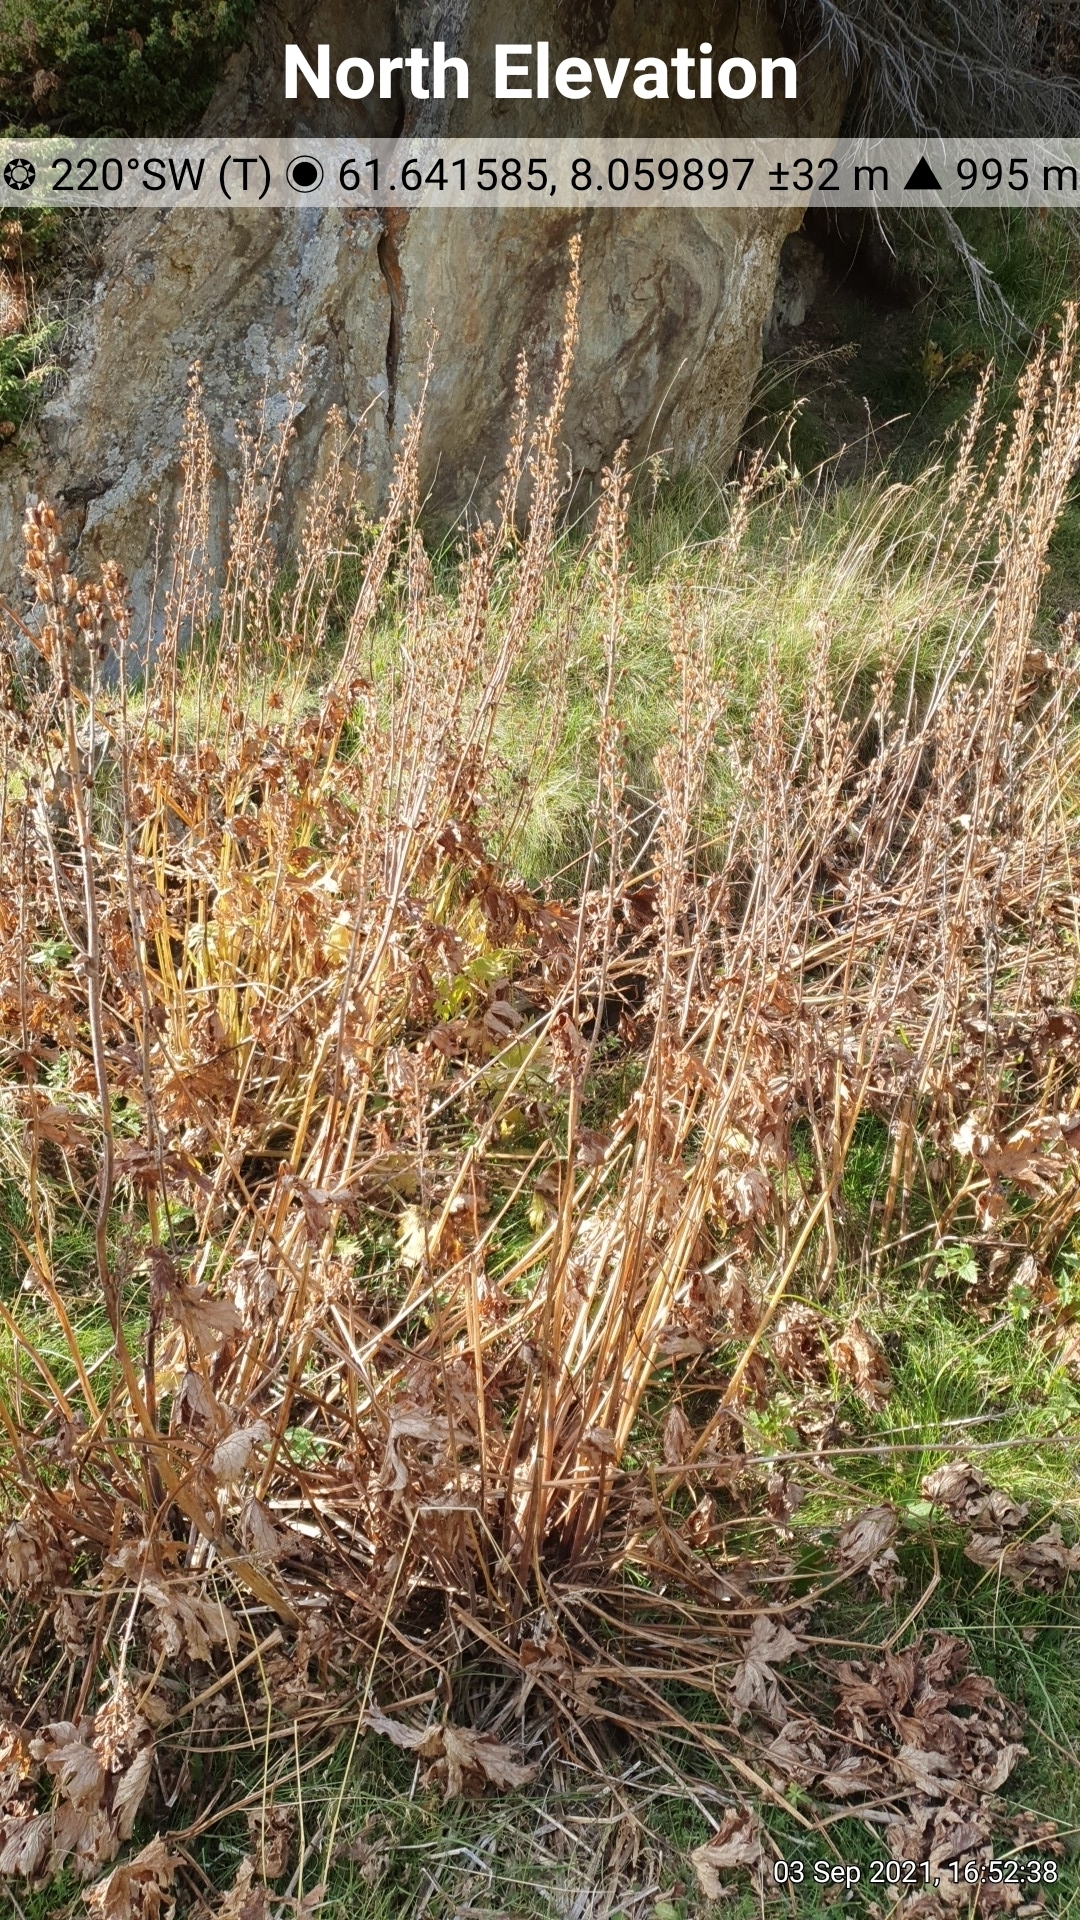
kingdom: Plantae
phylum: Tracheophyta
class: Magnoliopsida
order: Ranunculales
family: Ranunculaceae
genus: Aconitum
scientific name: Aconitum septentrionale
